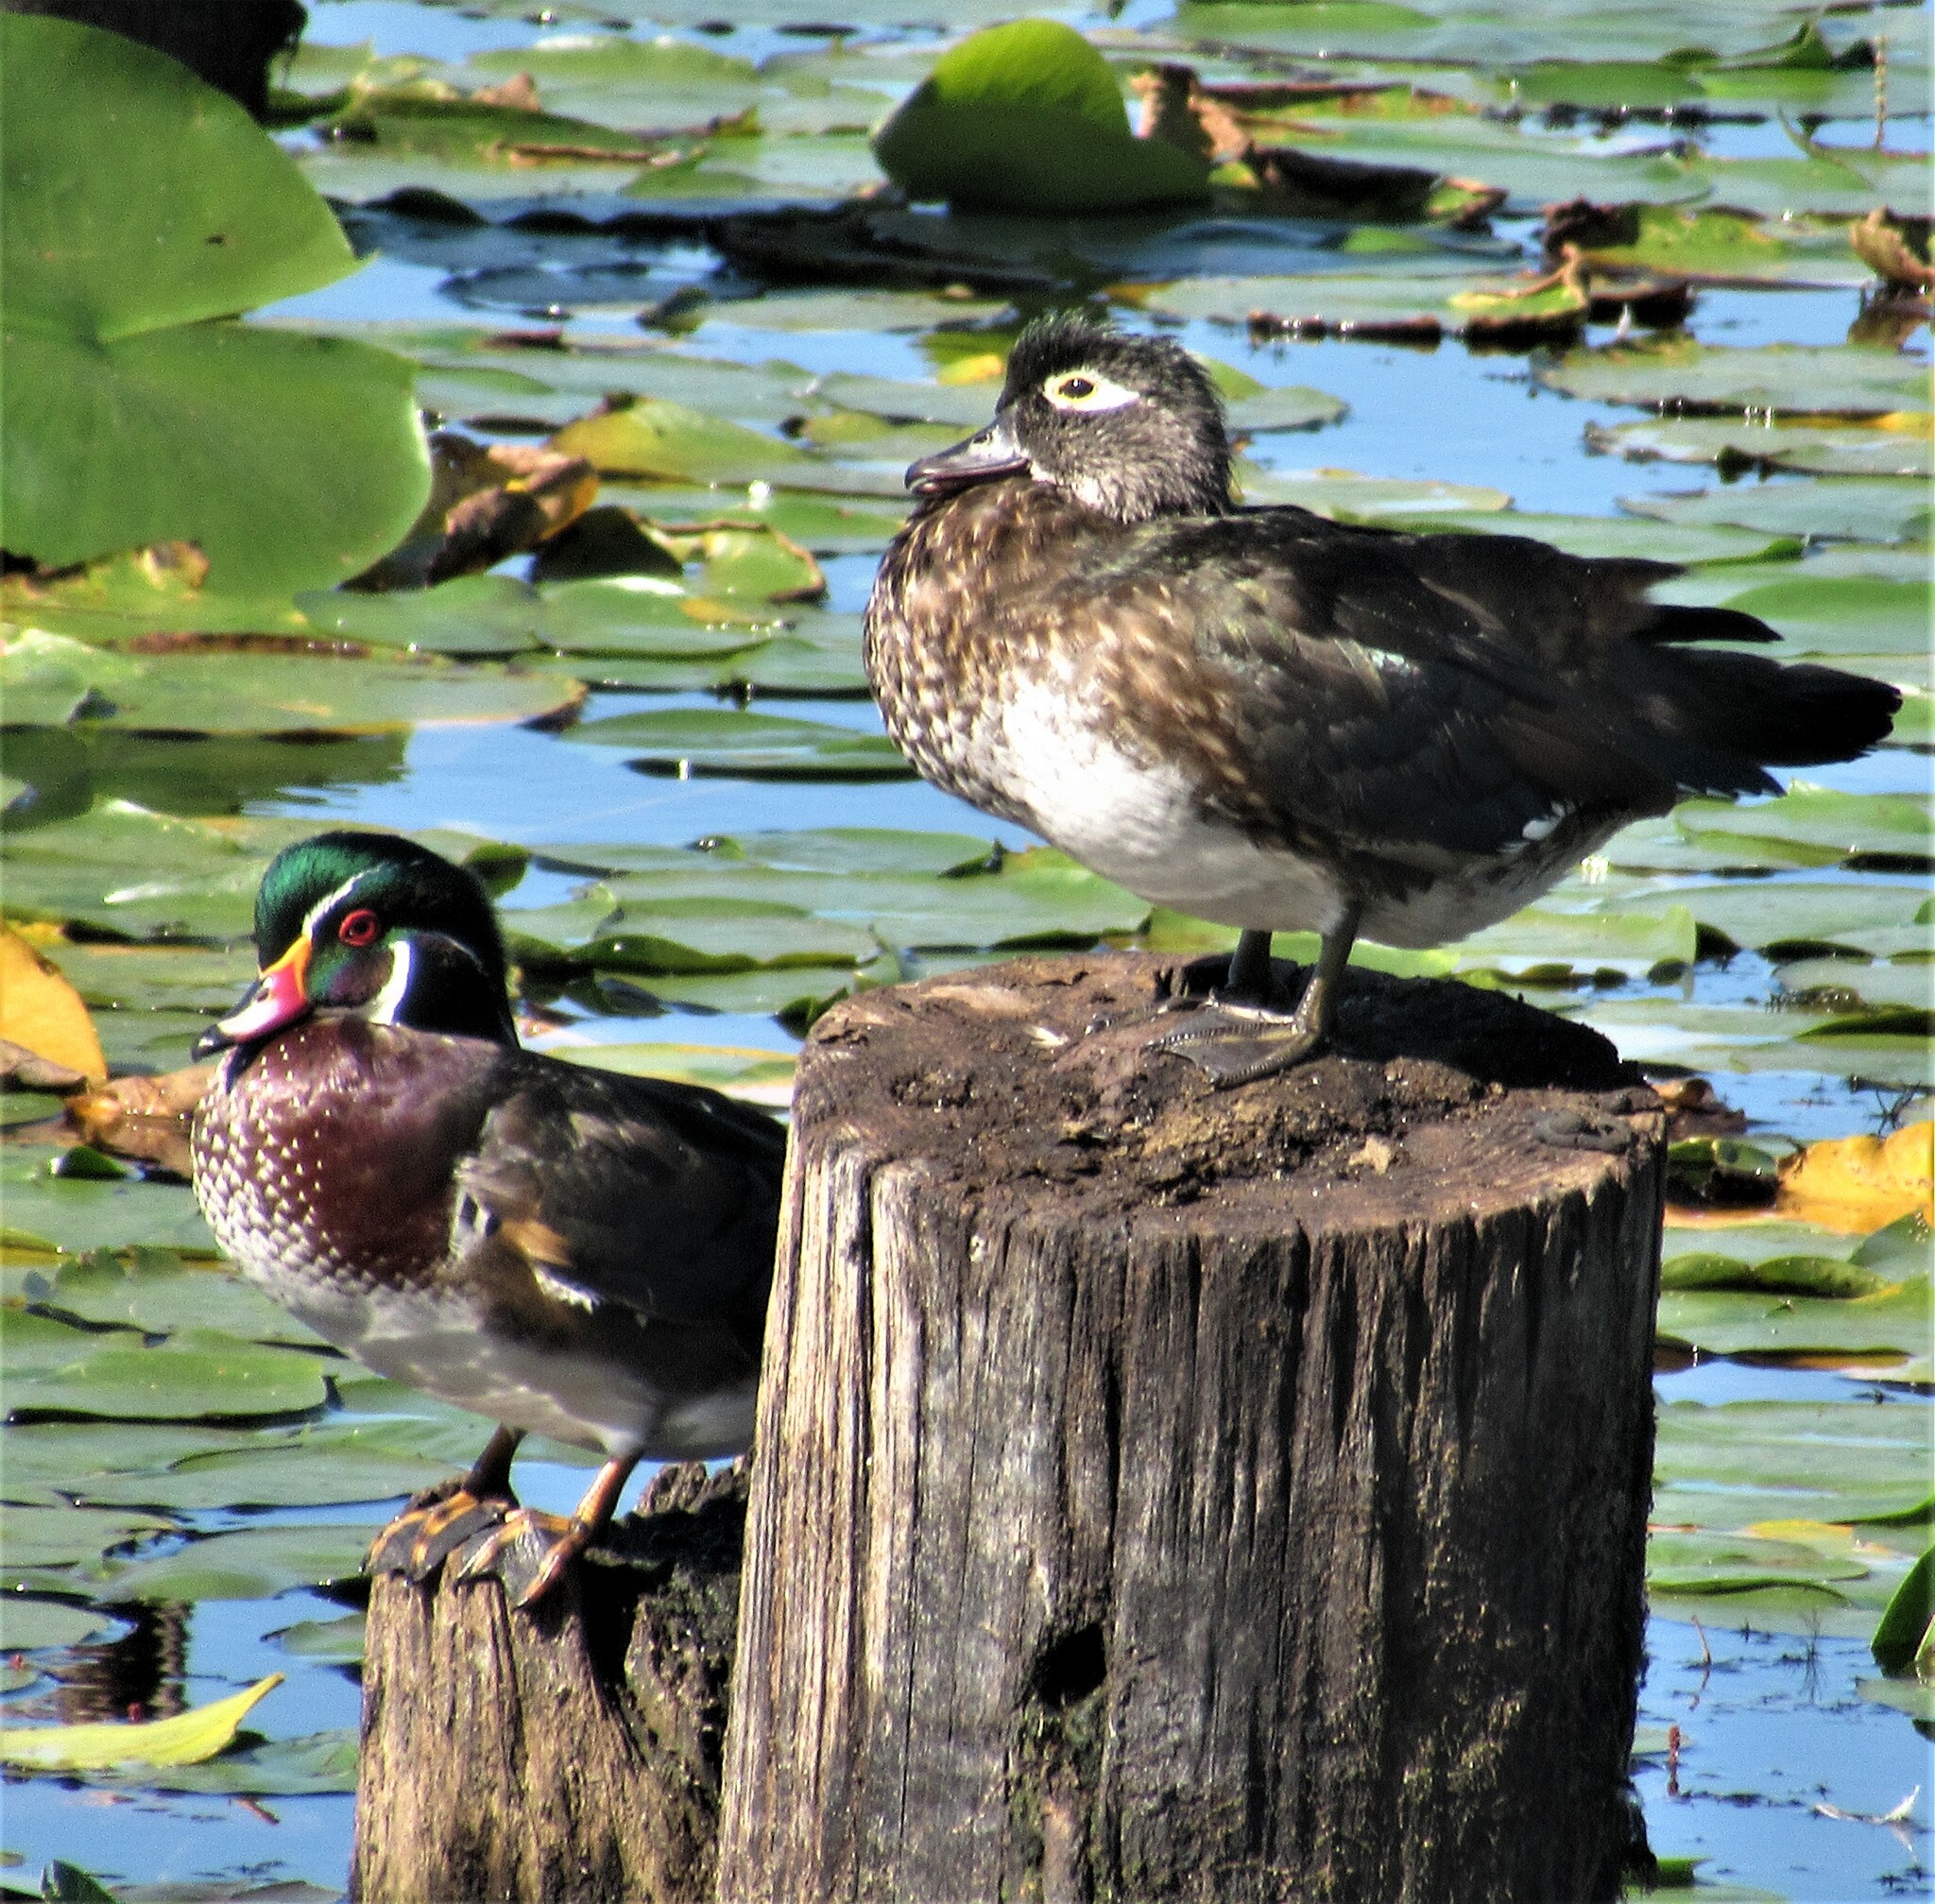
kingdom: Animalia
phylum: Chordata
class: Aves
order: Anseriformes
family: Anatidae
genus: Aix
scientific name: Aix sponsa
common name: Wood duck
